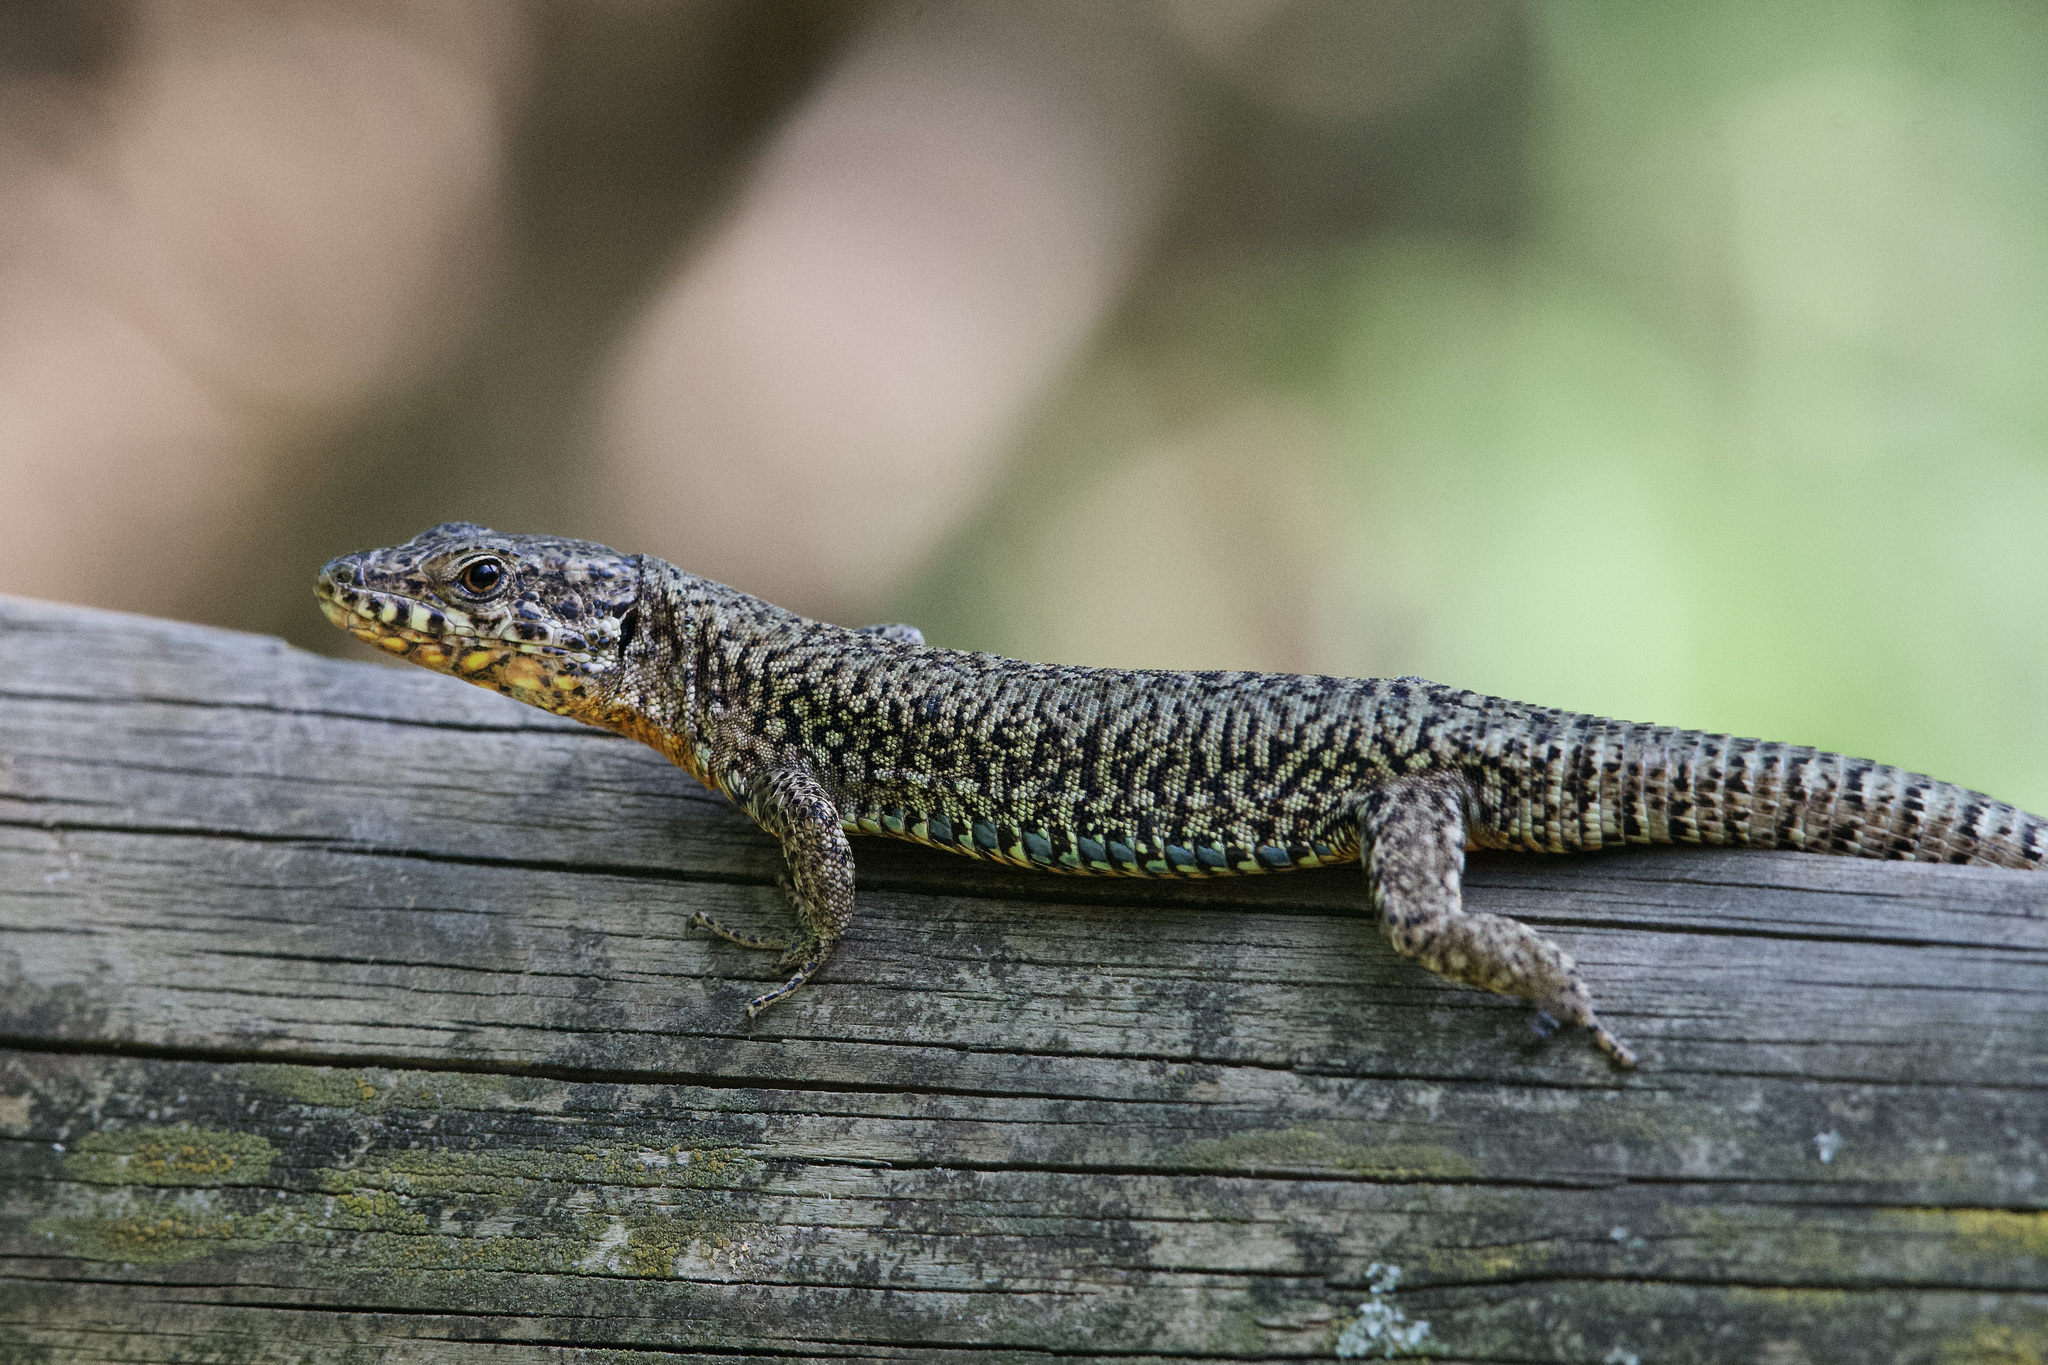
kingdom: Animalia
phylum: Chordata
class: Squamata
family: Lacertidae
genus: Podarcis
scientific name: Podarcis muralis
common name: Common wall lizard
